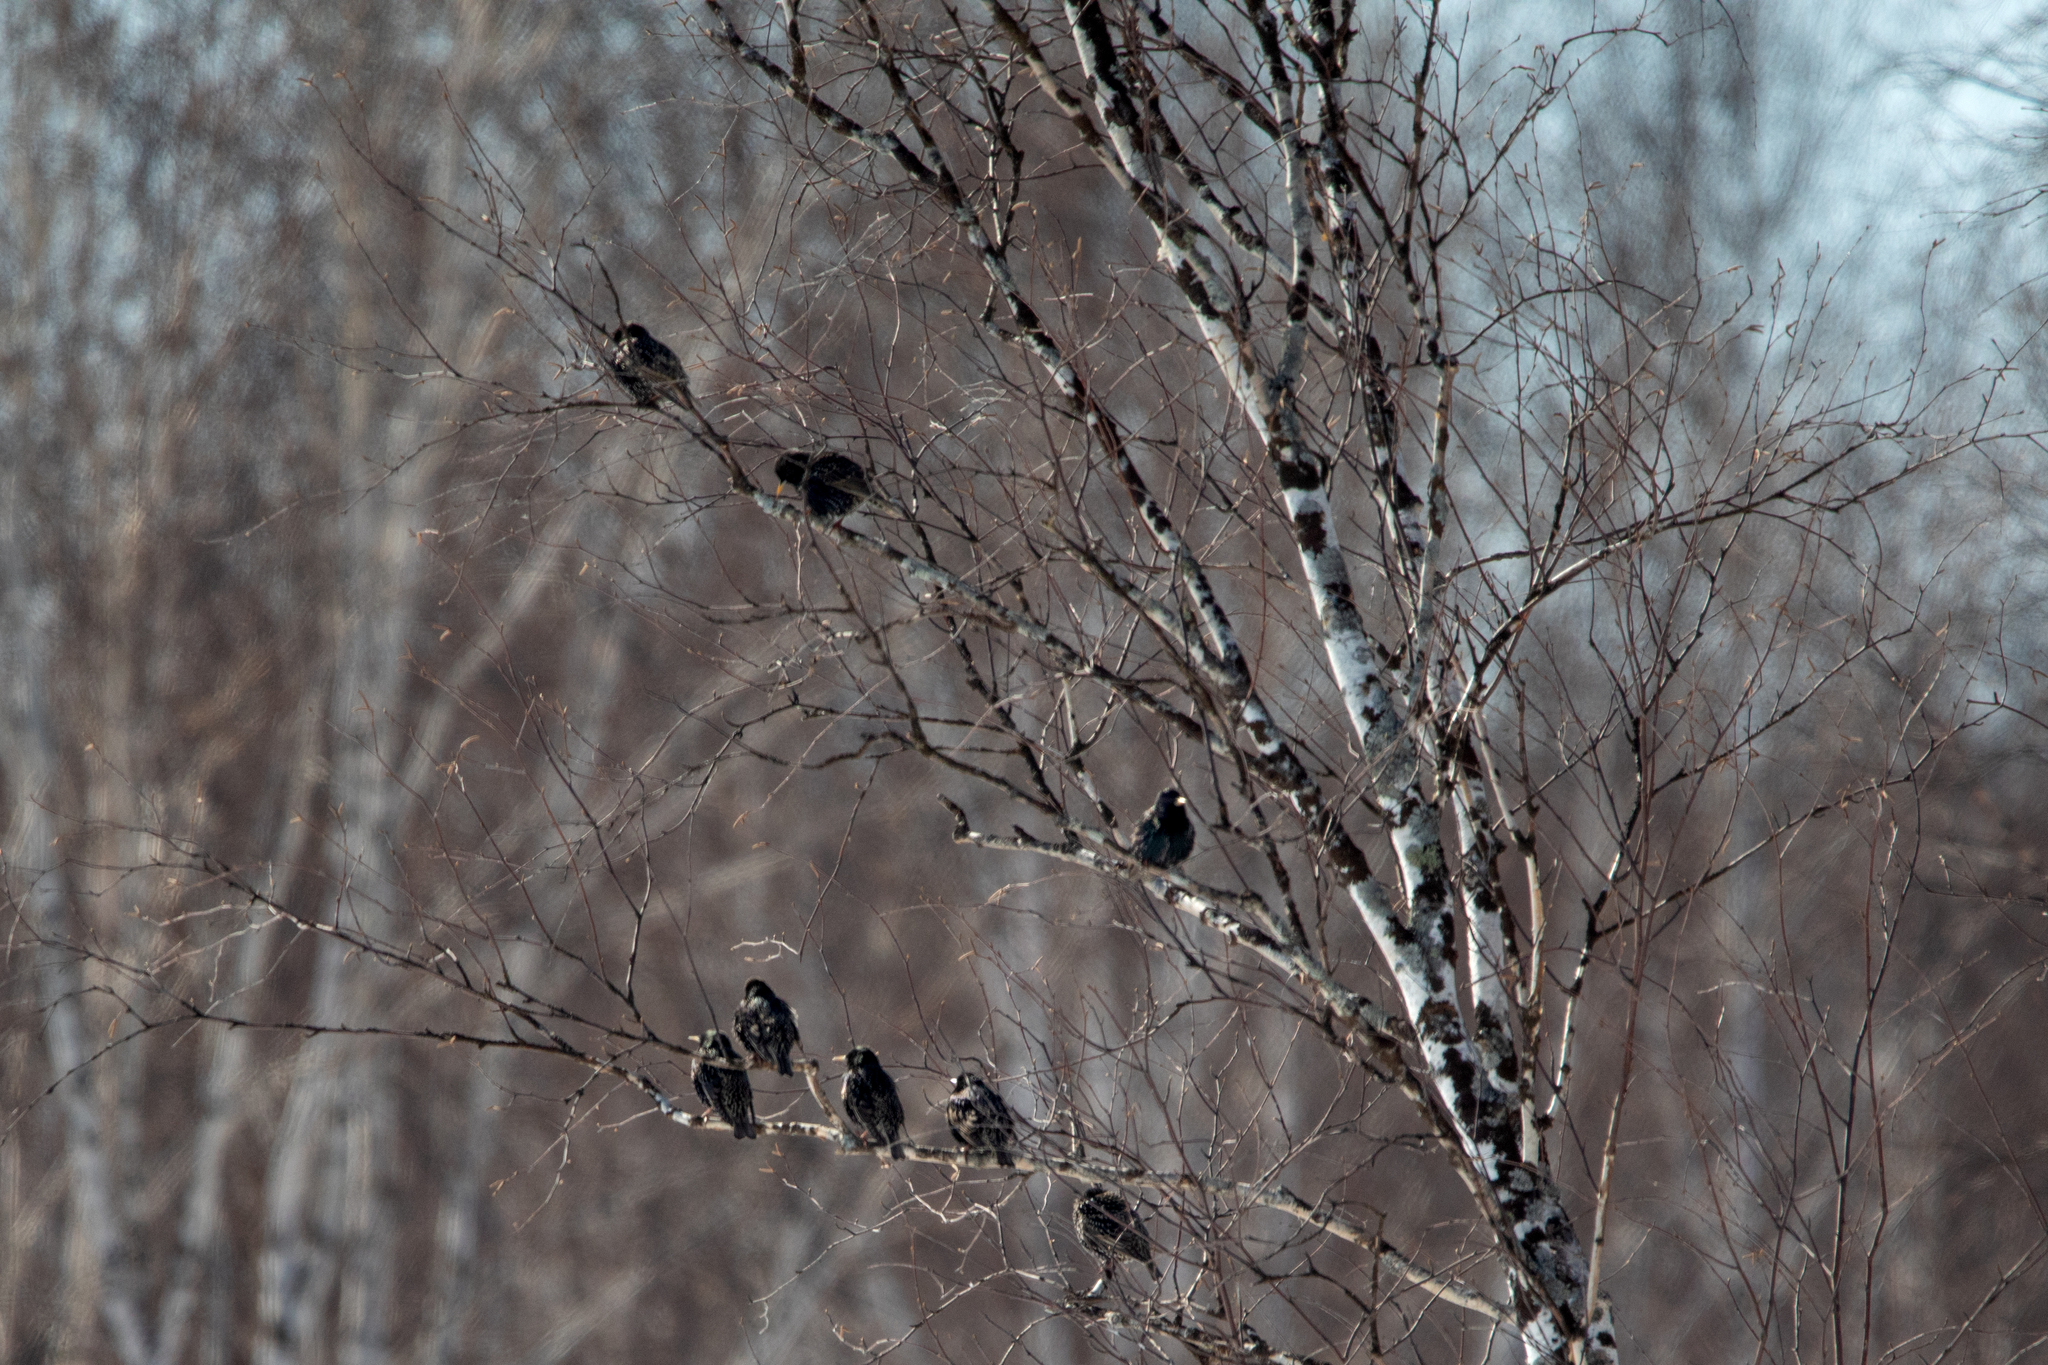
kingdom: Animalia
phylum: Chordata
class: Aves
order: Passeriformes
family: Sturnidae
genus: Sturnus
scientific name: Sturnus vulgaris
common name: Common starling
